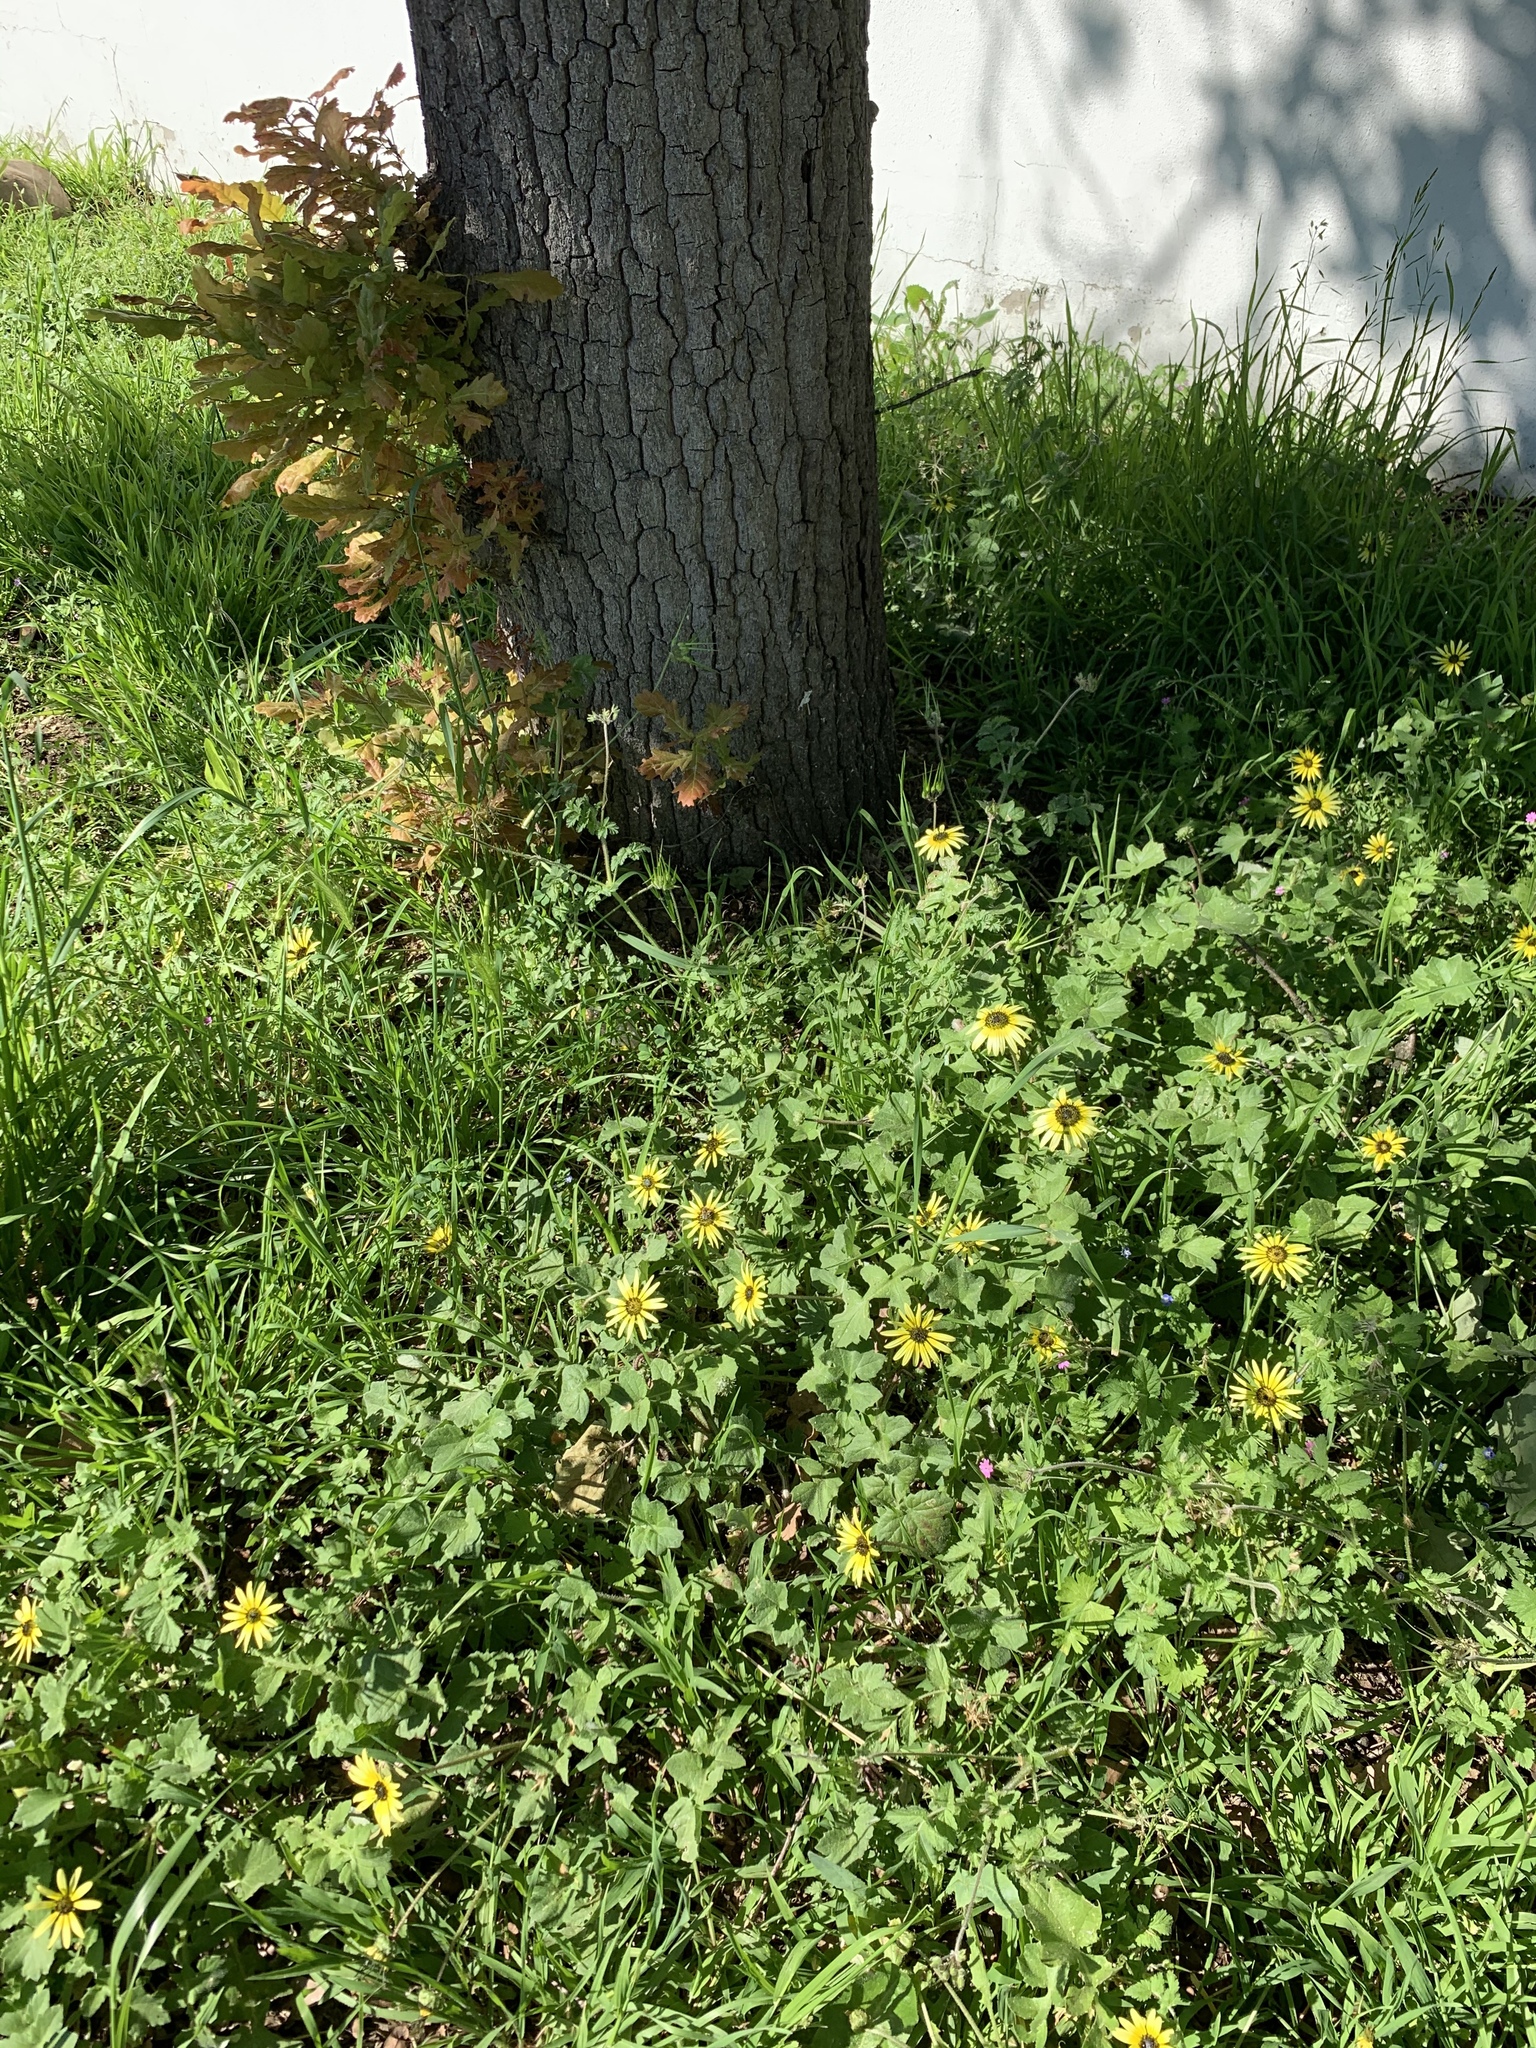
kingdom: Plantae
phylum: Tracheophyta
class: Magnoliopsida
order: Asterales
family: Asteraceae
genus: Arctotheca
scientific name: Arctotheca calendula
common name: Capeweed
